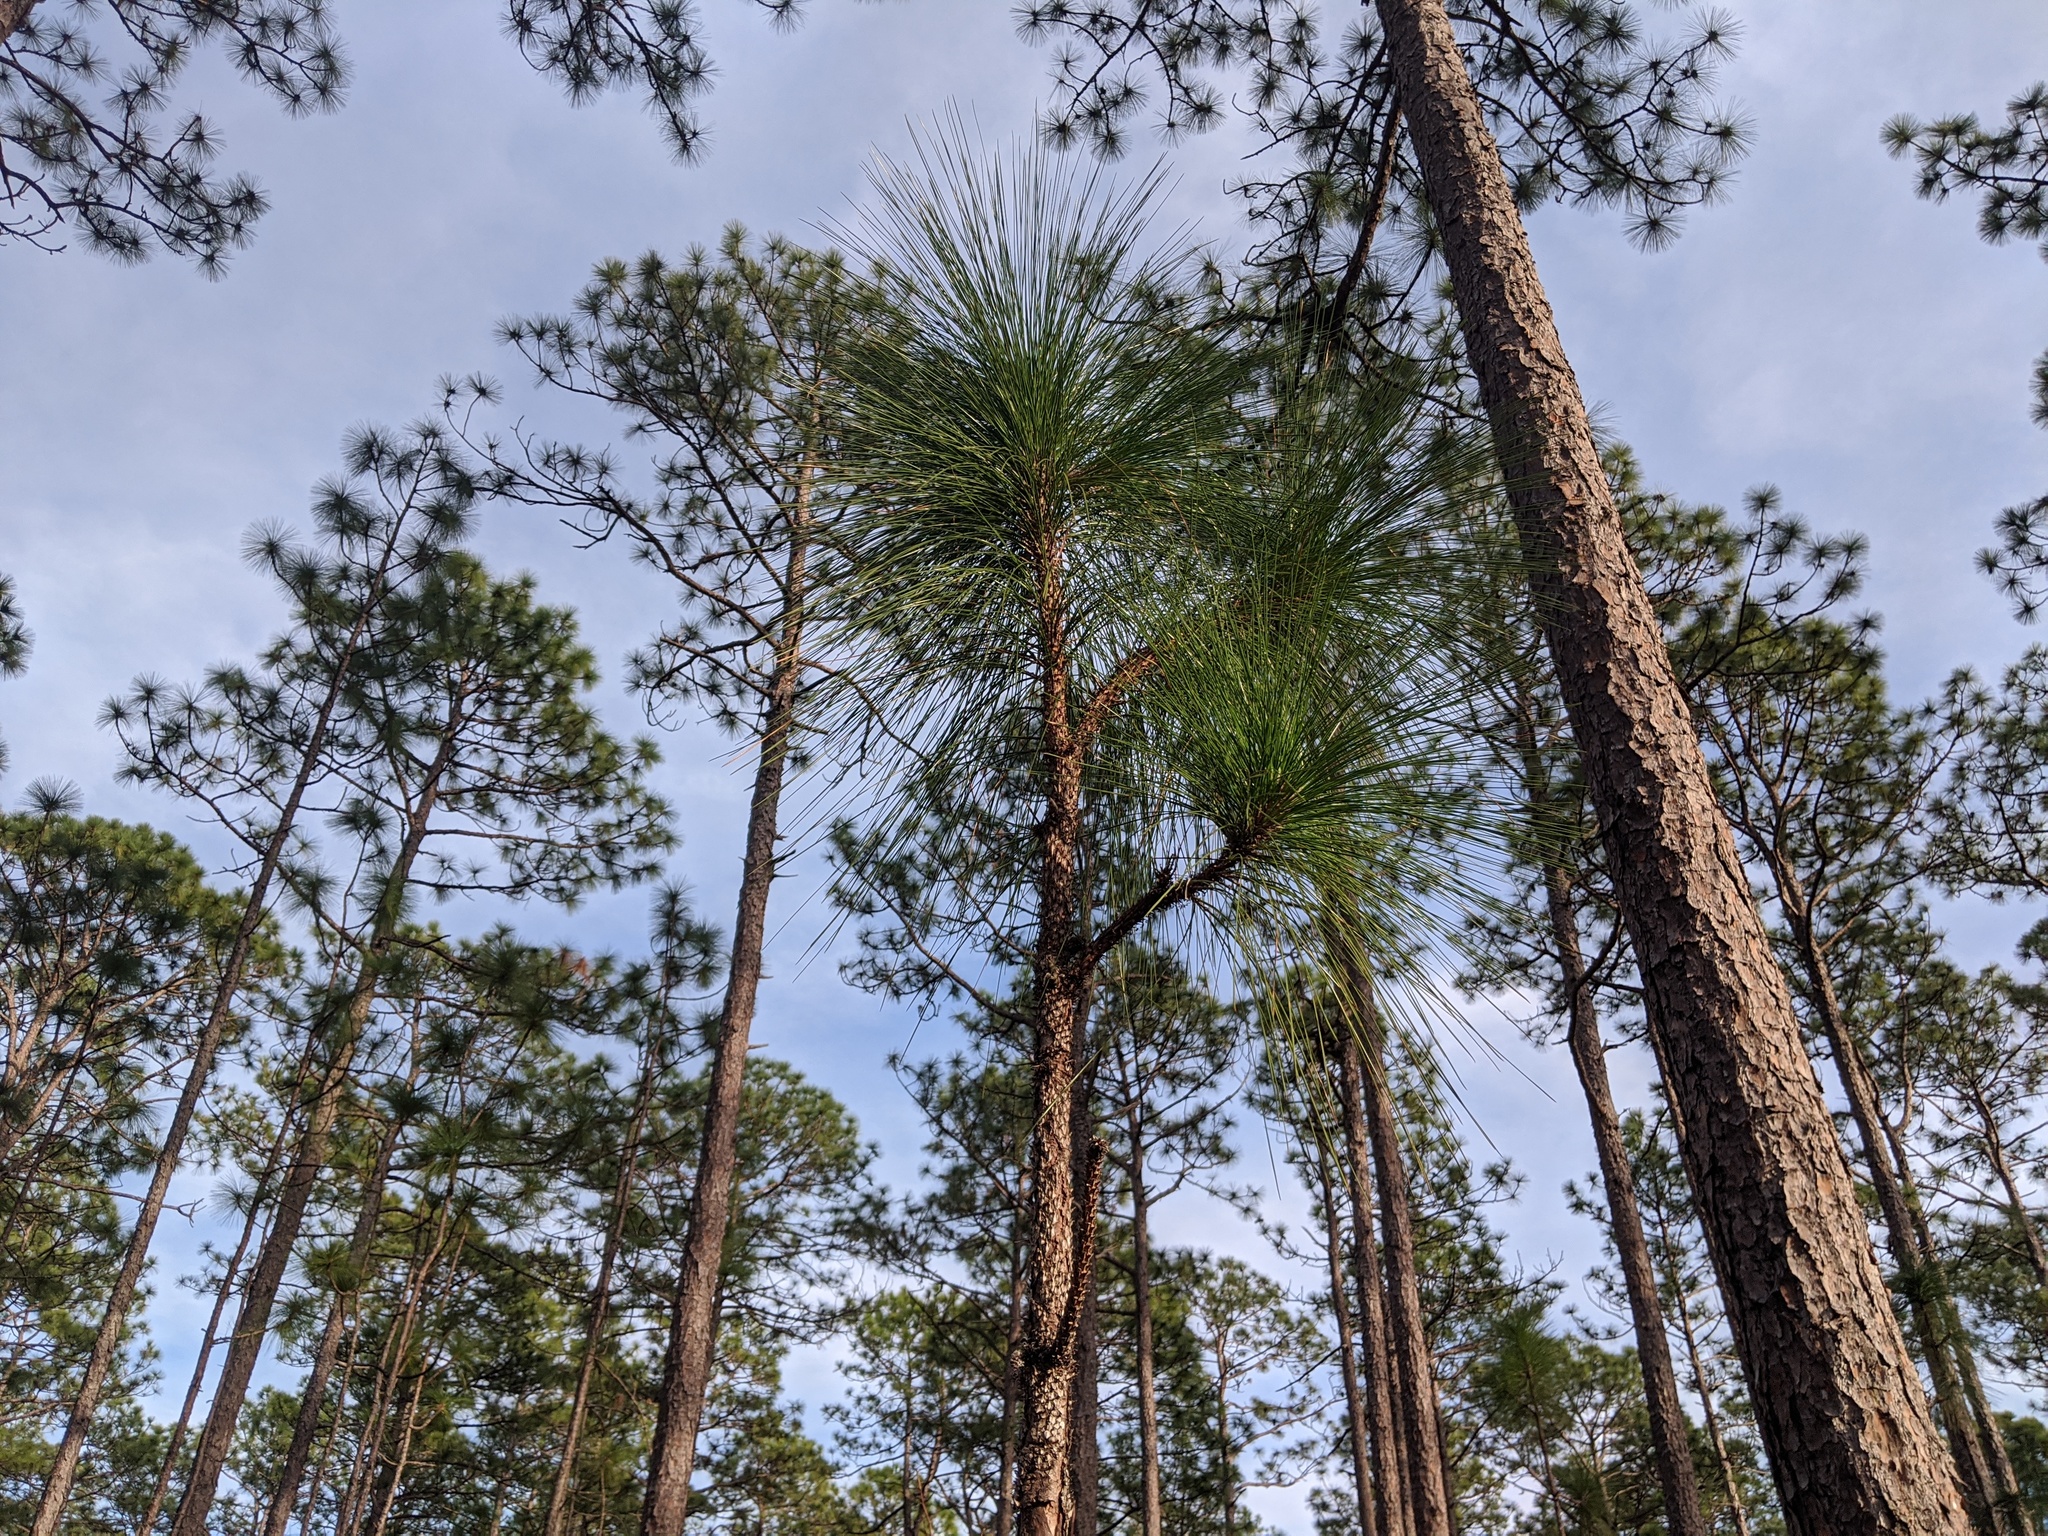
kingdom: Plantae
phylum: Tracheophyta
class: Pinopsida
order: Pinales
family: Pinaceae
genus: Pinus
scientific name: Pinus palustris
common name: Longleaf pine
